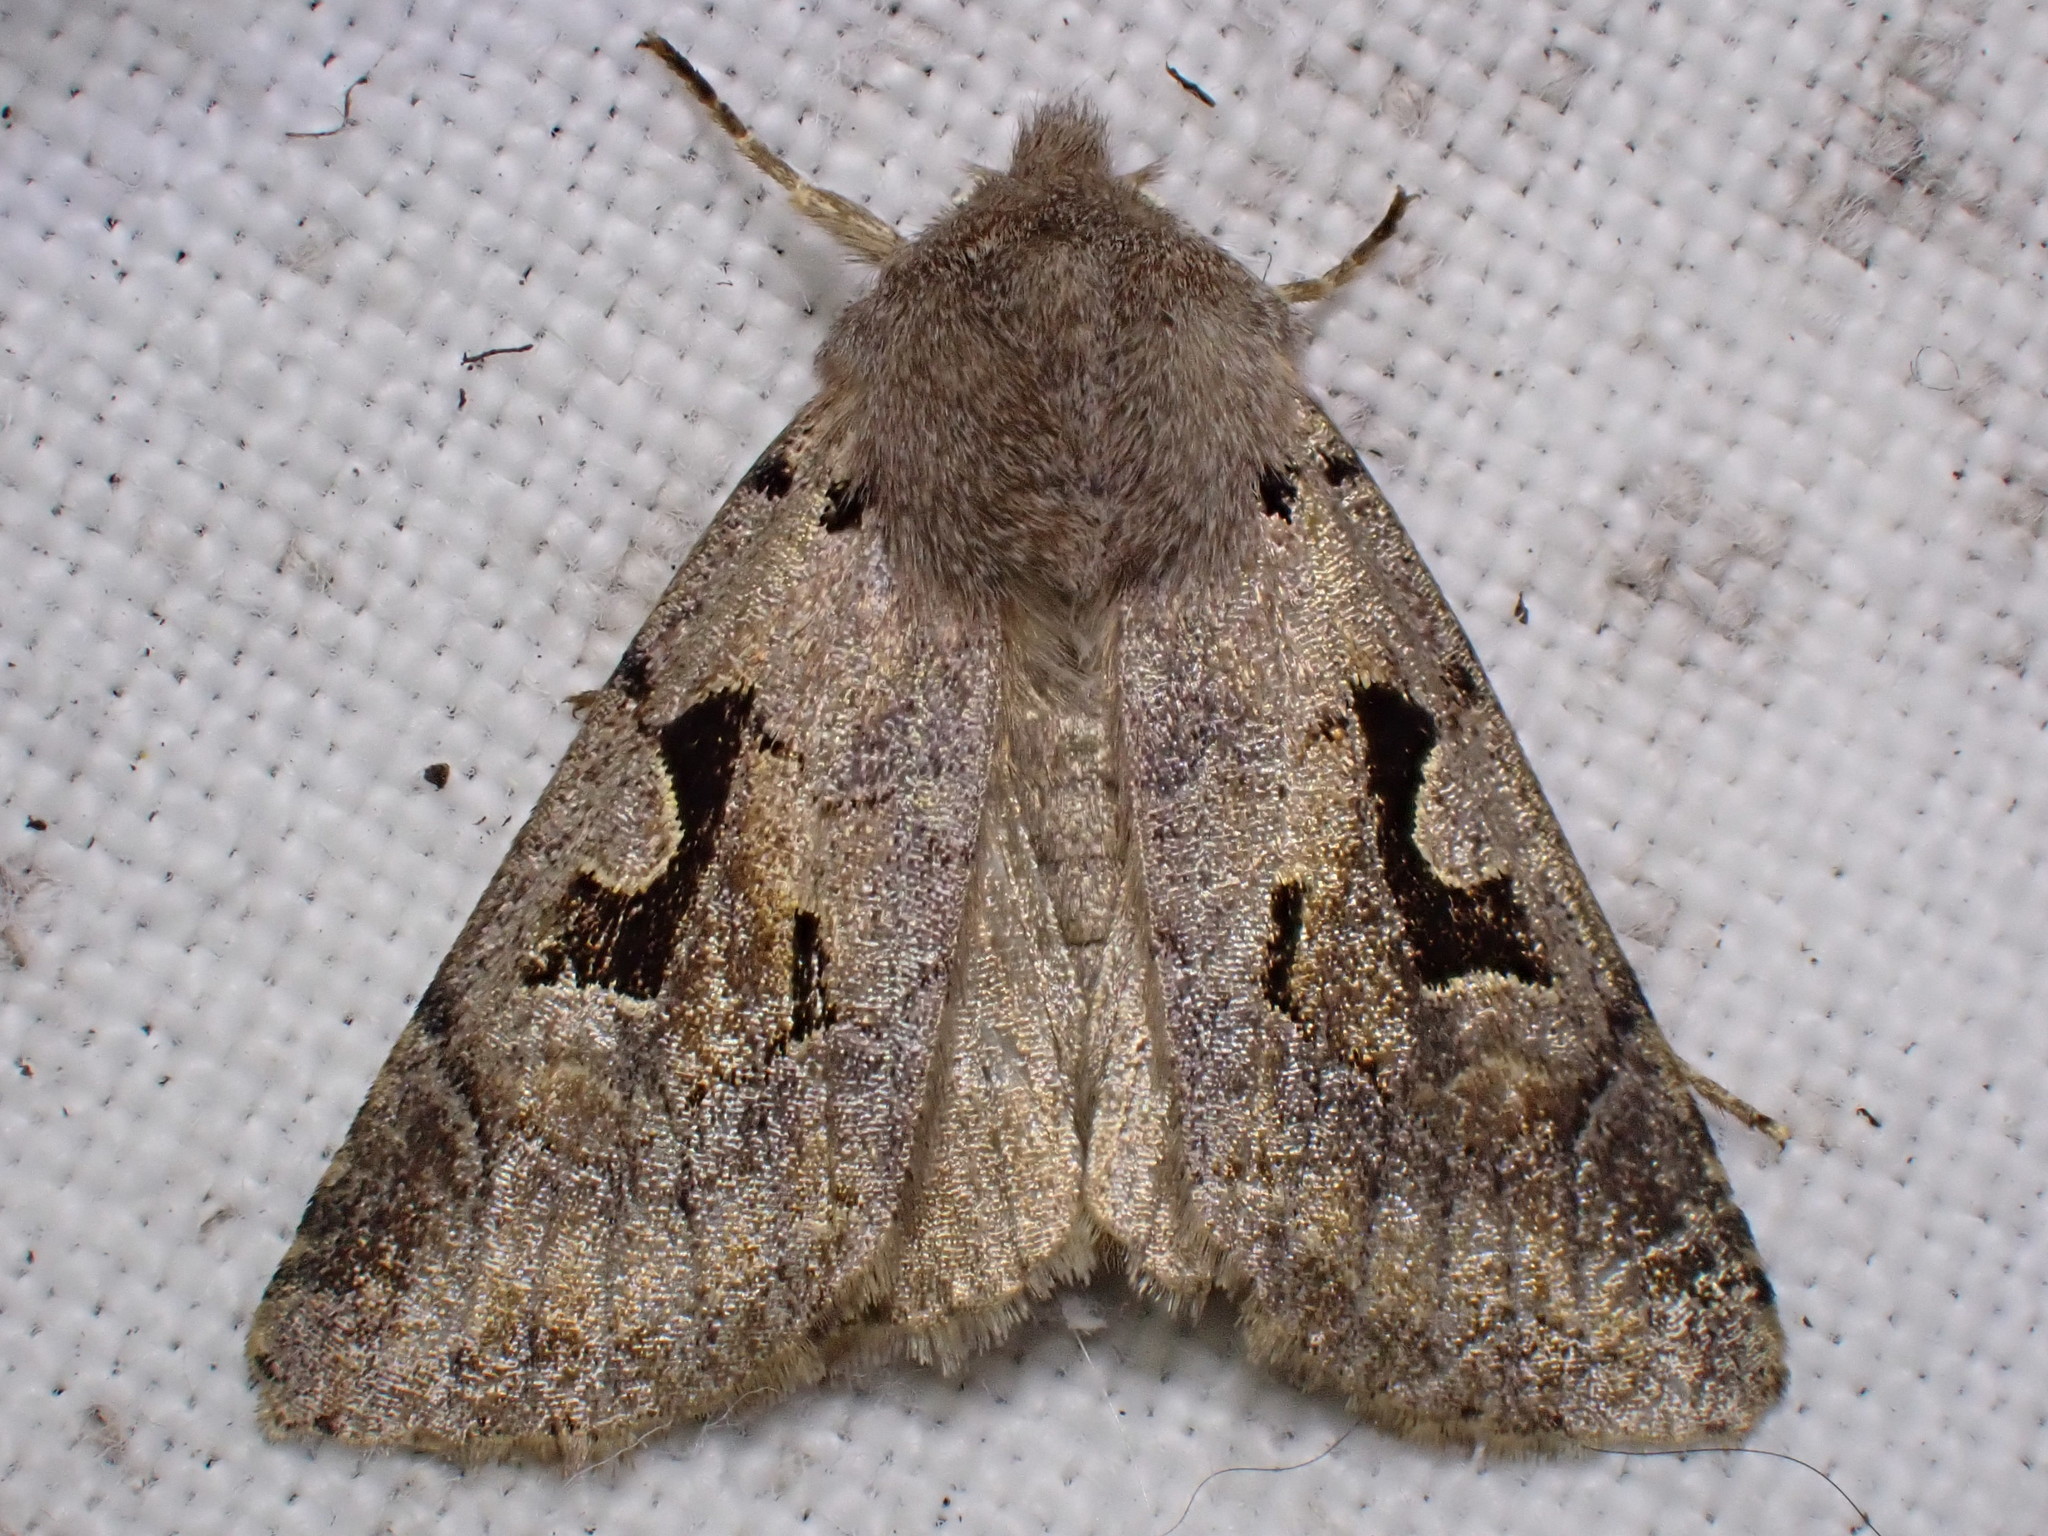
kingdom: Animalia
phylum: Arthropoda
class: Insecta
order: Lepidoptera
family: Noctuidae
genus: Orthosia
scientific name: Orthosia gothica
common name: Hebrew character
